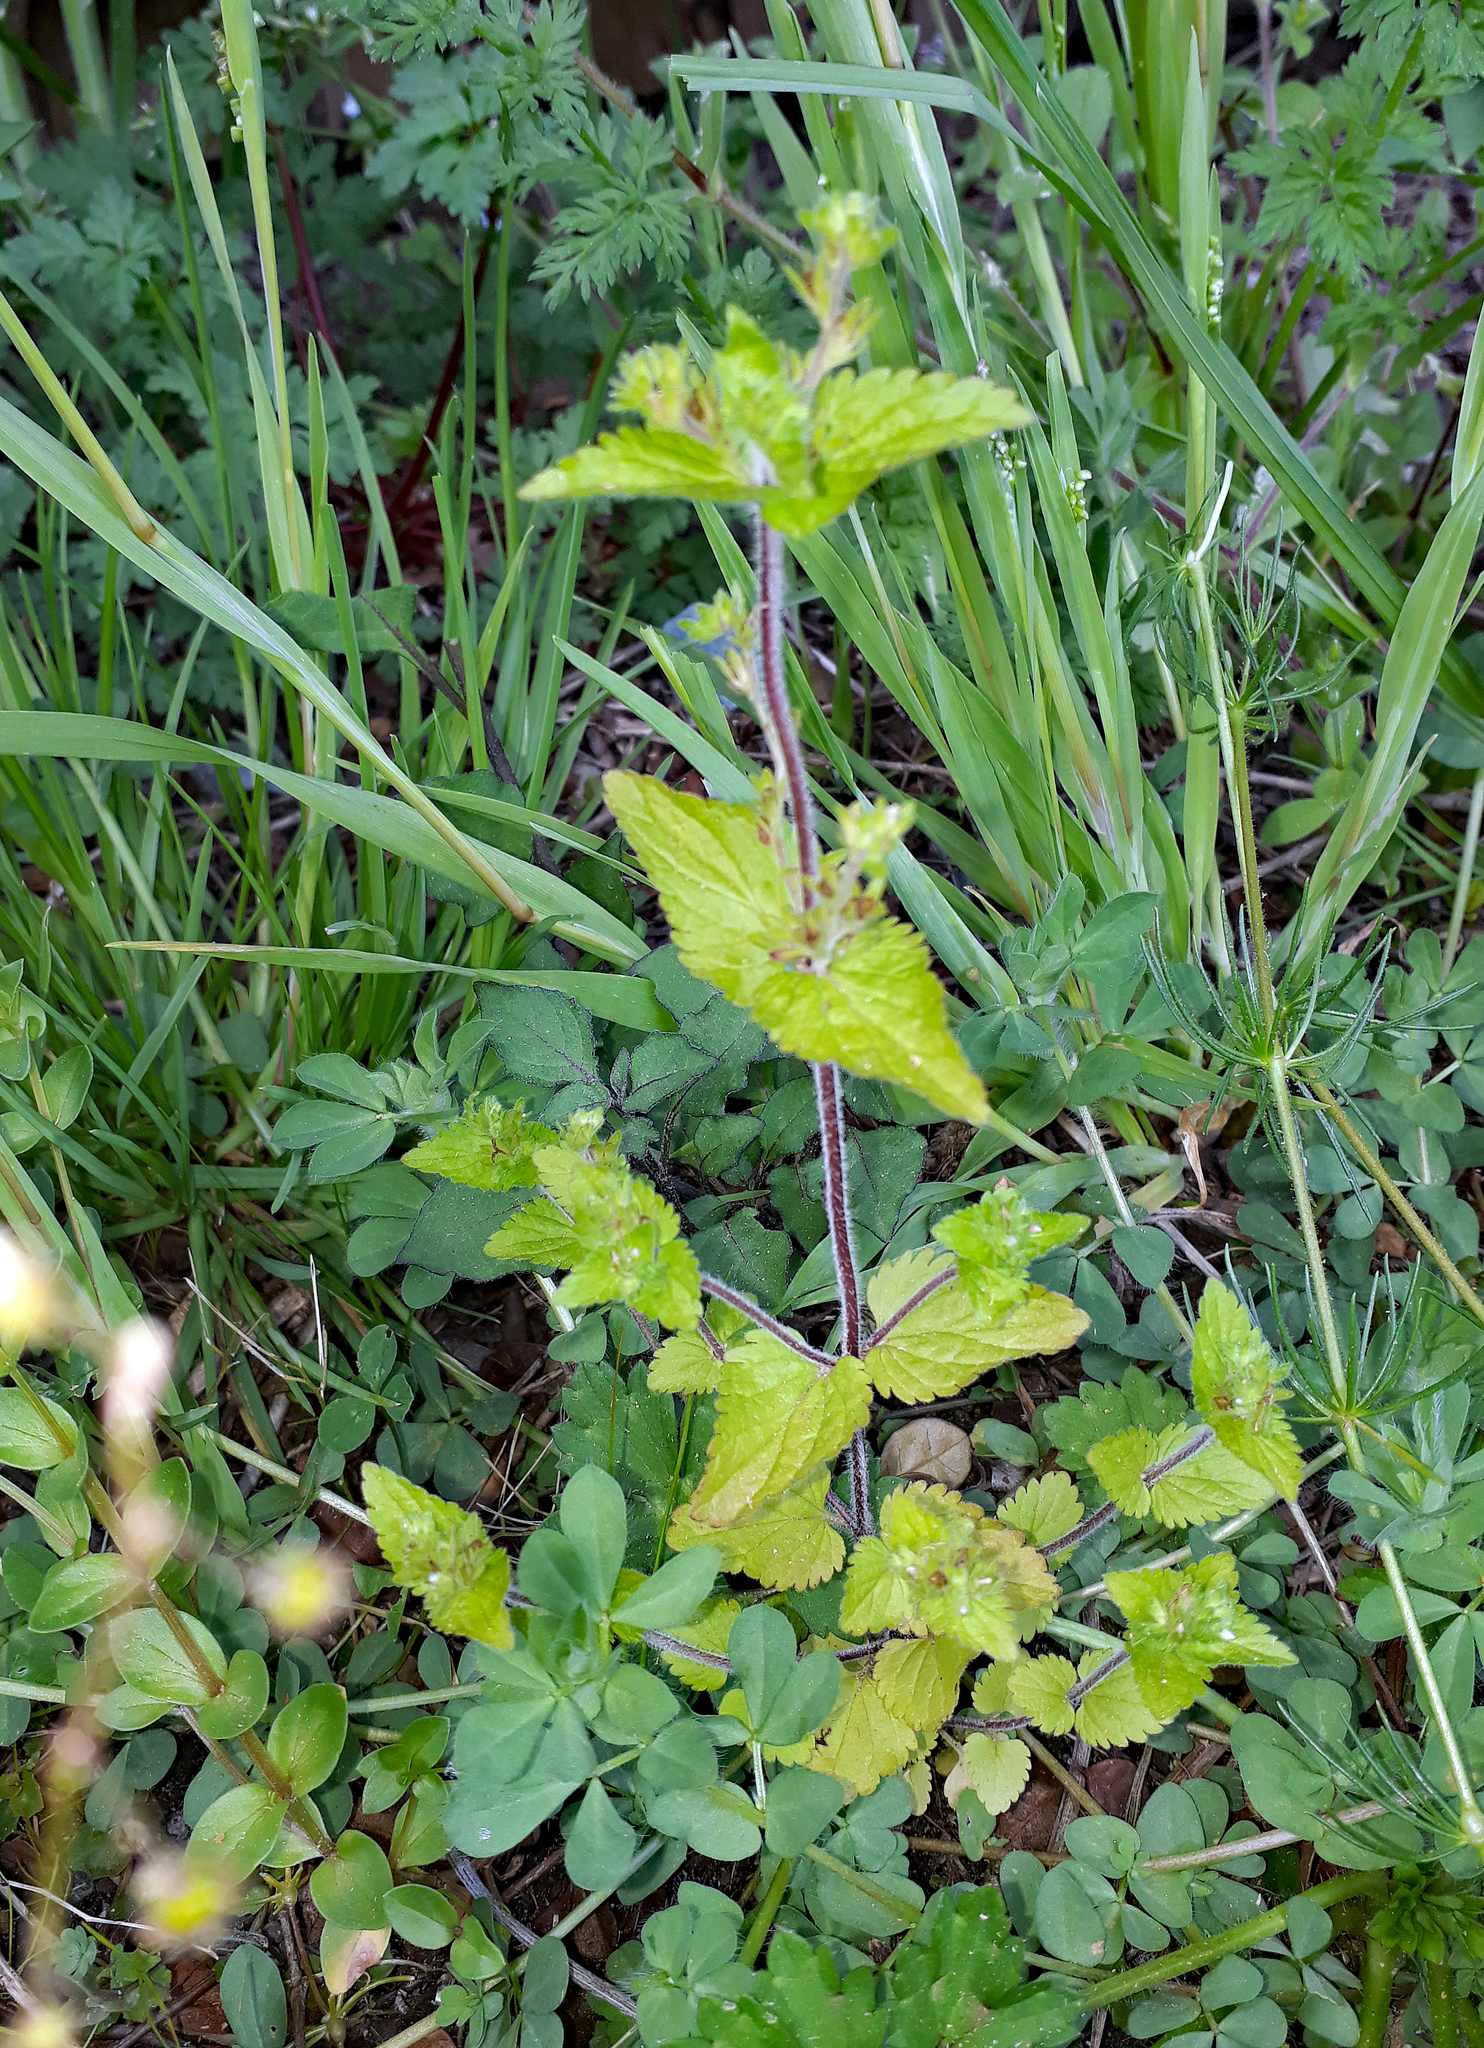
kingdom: Plantae
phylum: Tracheophyta
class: Magnoliopsida
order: Lamiales
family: Plantaginaceae
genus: Veronica
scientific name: Veronica javanica
